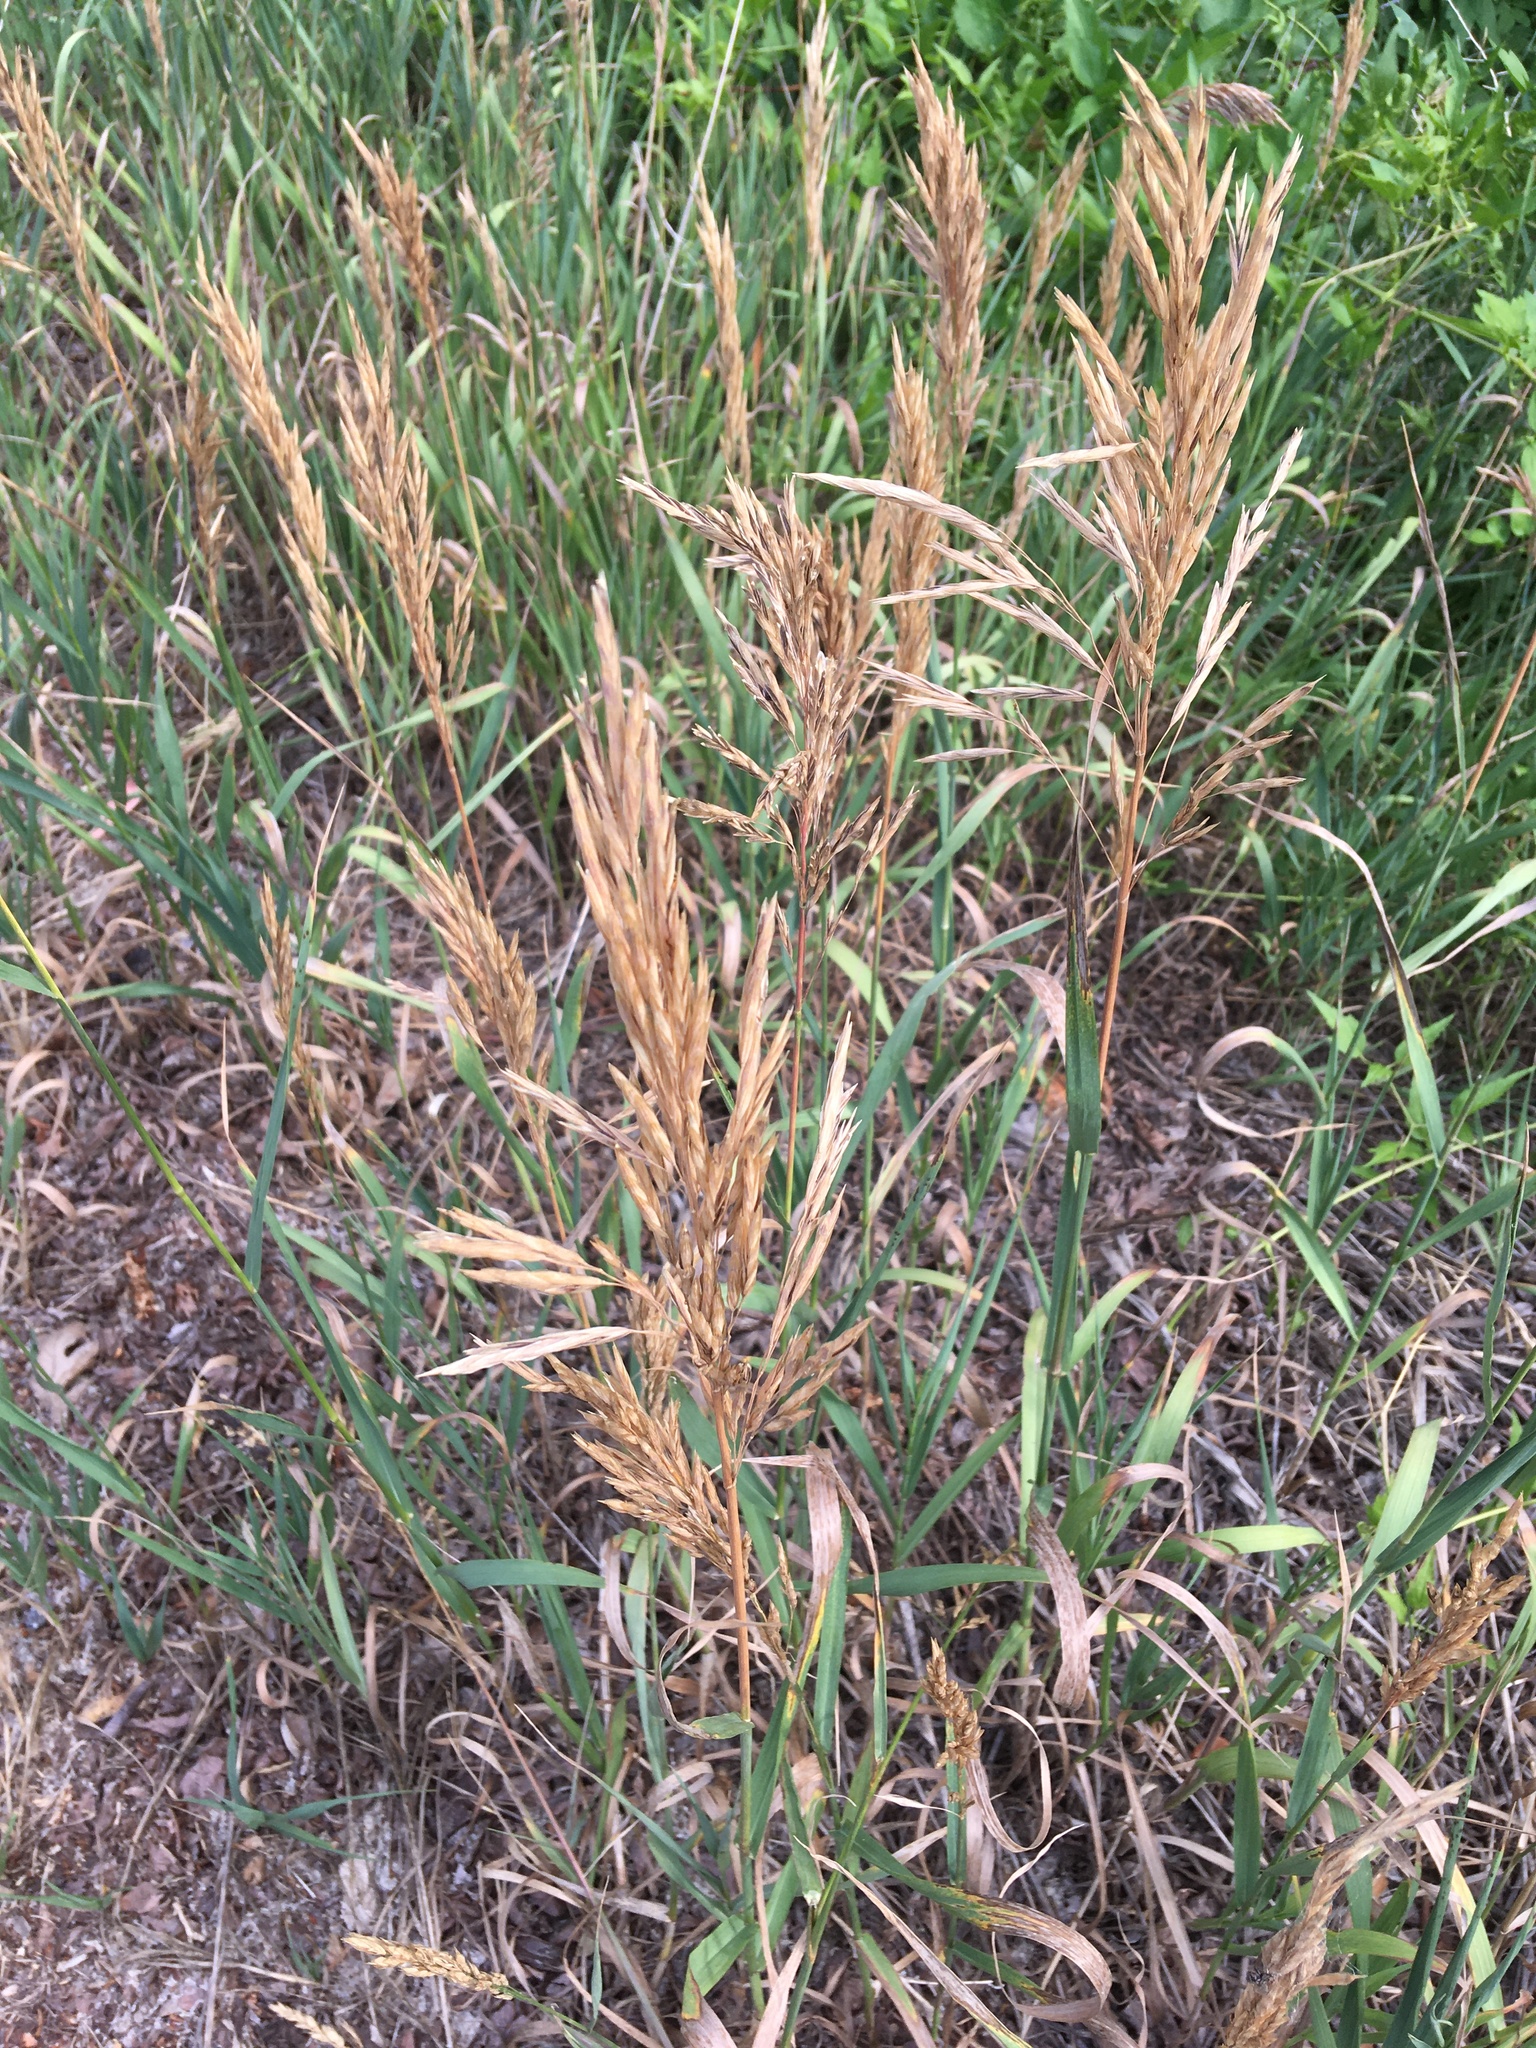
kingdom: Plantae
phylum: Tracheophyta
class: Liliopsida
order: Poales
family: Poaceae
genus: Bromus
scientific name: Bromus inermis
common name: Smooth brome
